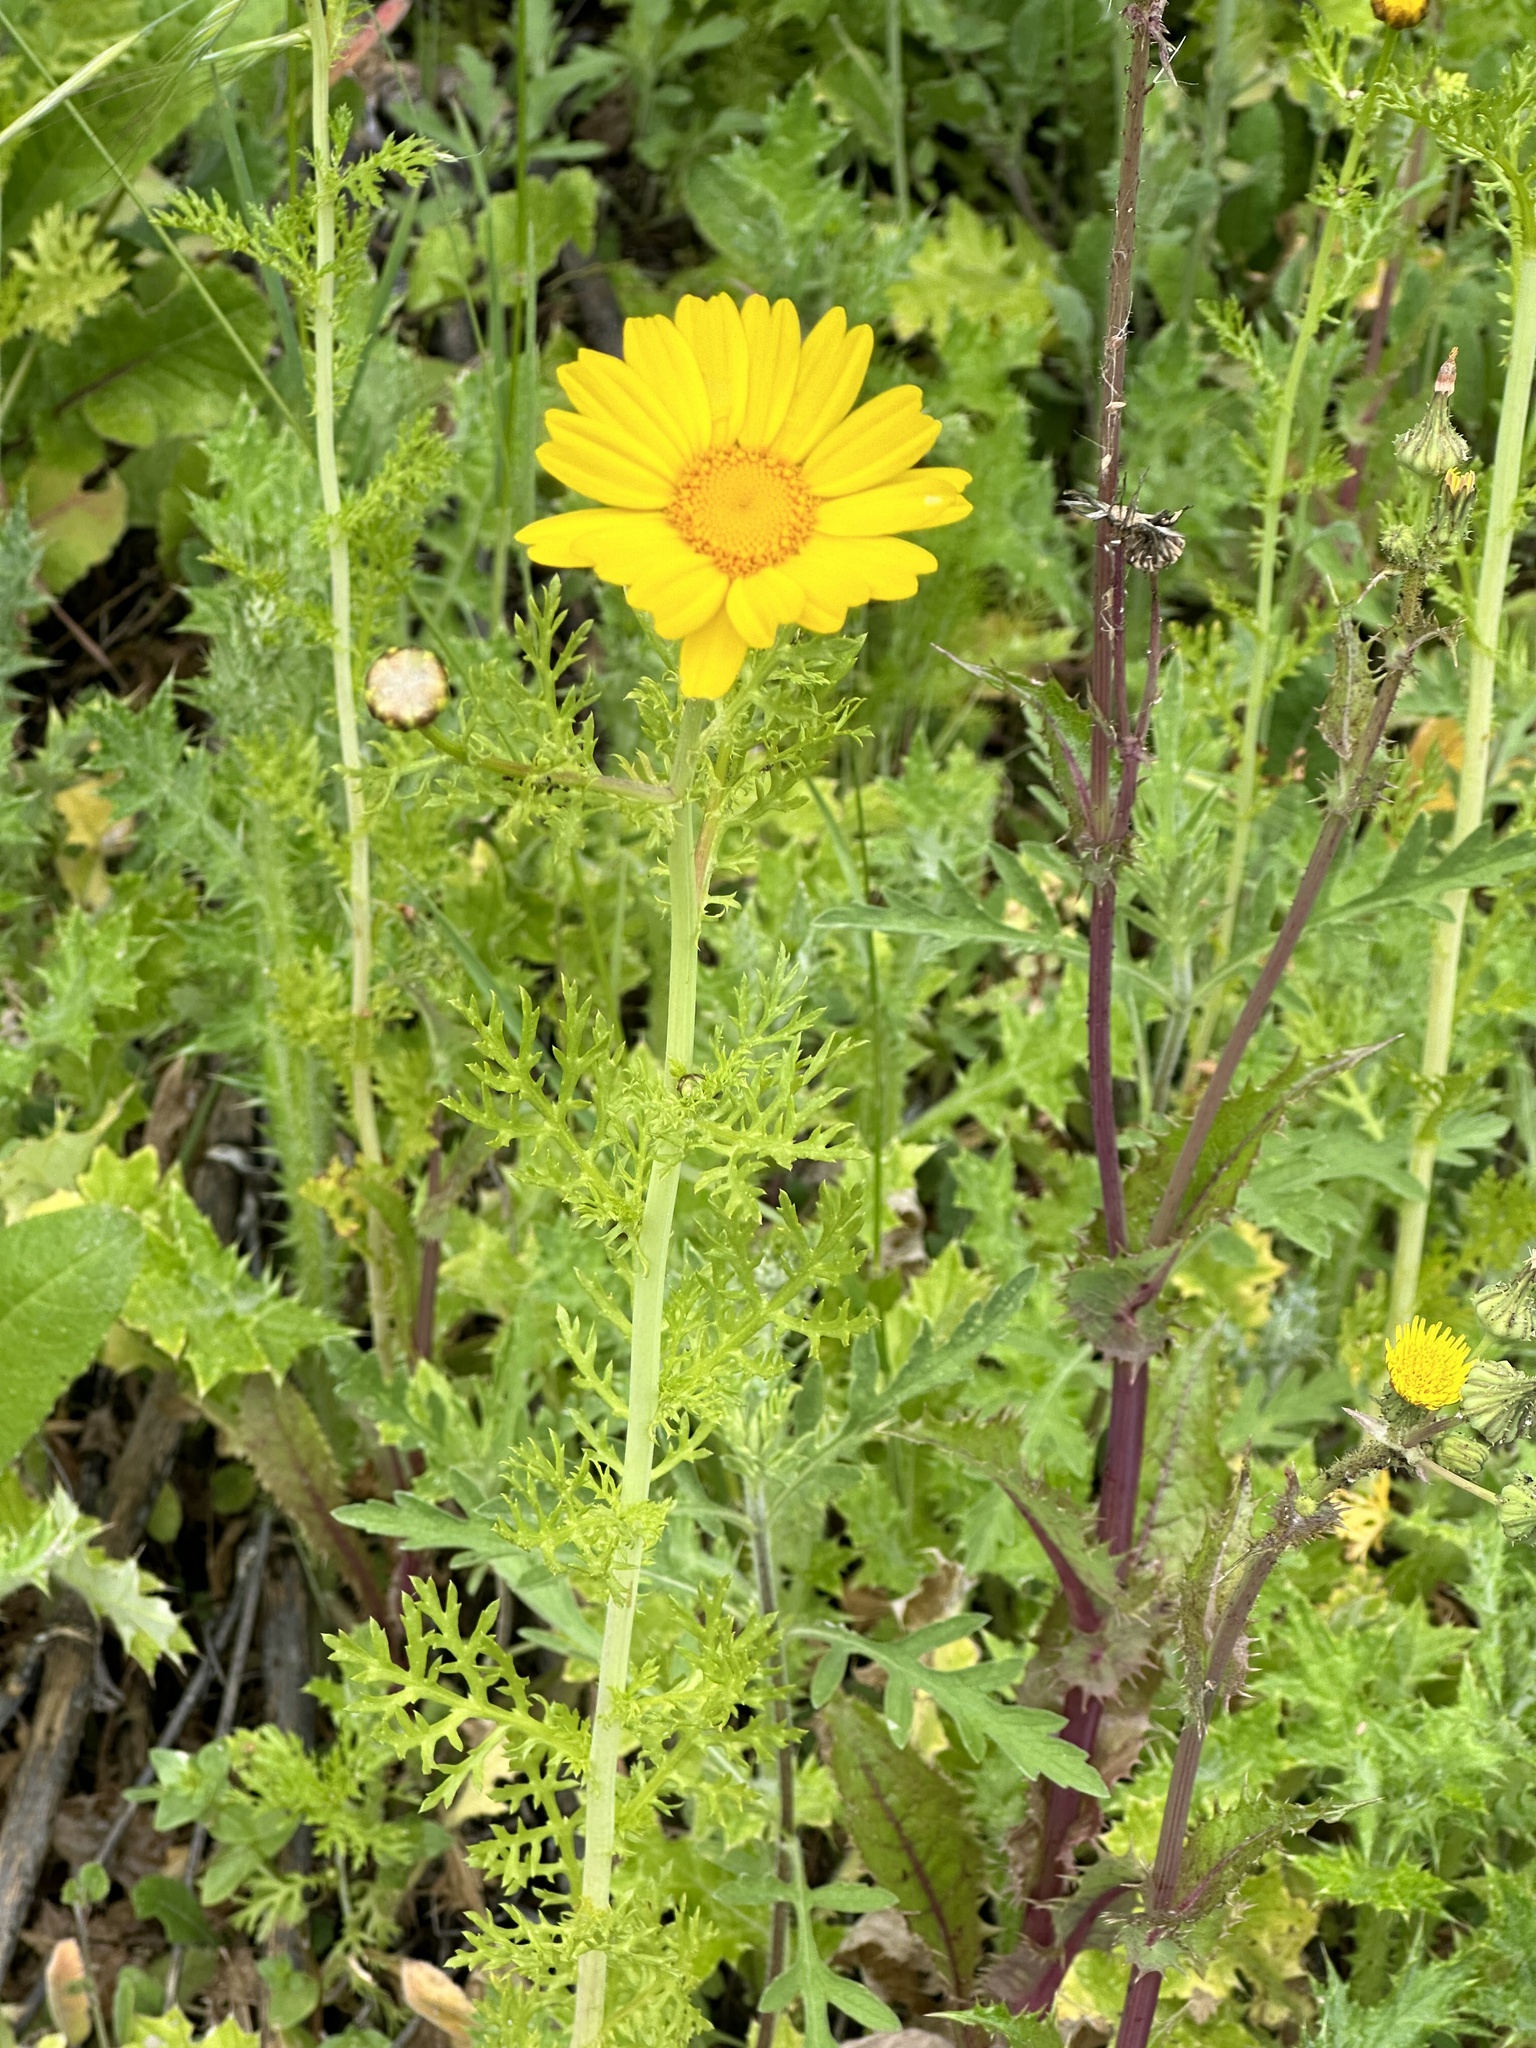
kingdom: Plantae
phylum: Tracheophyta
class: Magnoliopsida
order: Asterales
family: Asteraceae
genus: Glebionis
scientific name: Glebionis coronaria
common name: Crowndaisy
